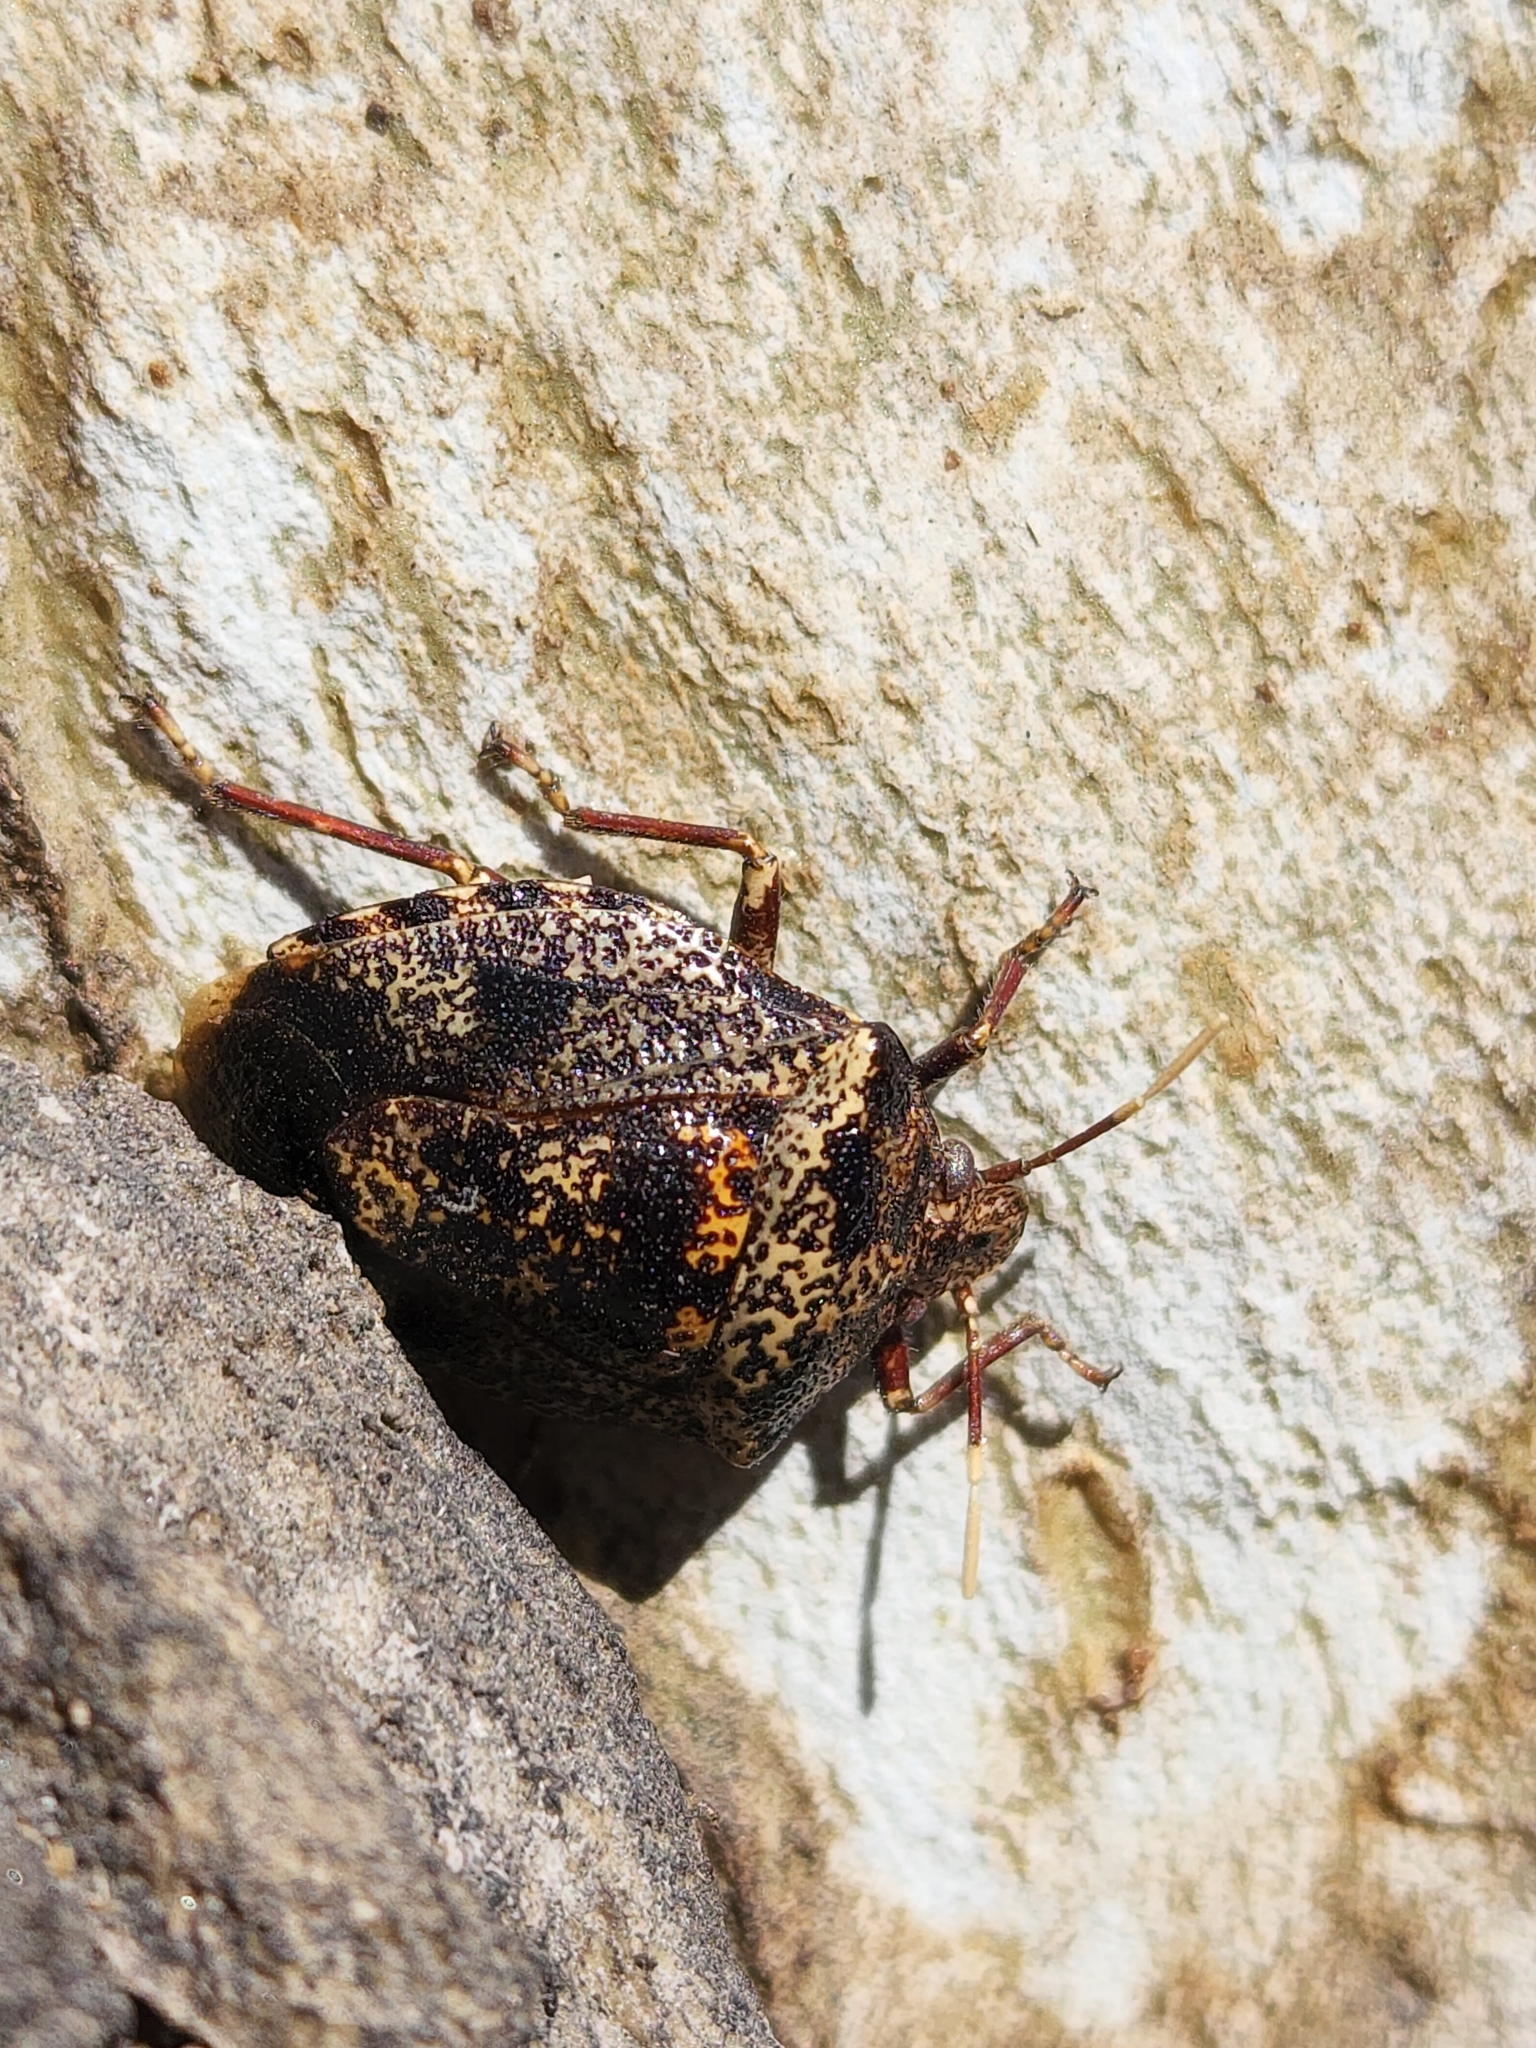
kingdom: Animalia
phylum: Arthropoda
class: Insecta
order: Hemiptera
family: Pentatomidae
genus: Antiteuchus
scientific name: Antiteuchus mixtus
